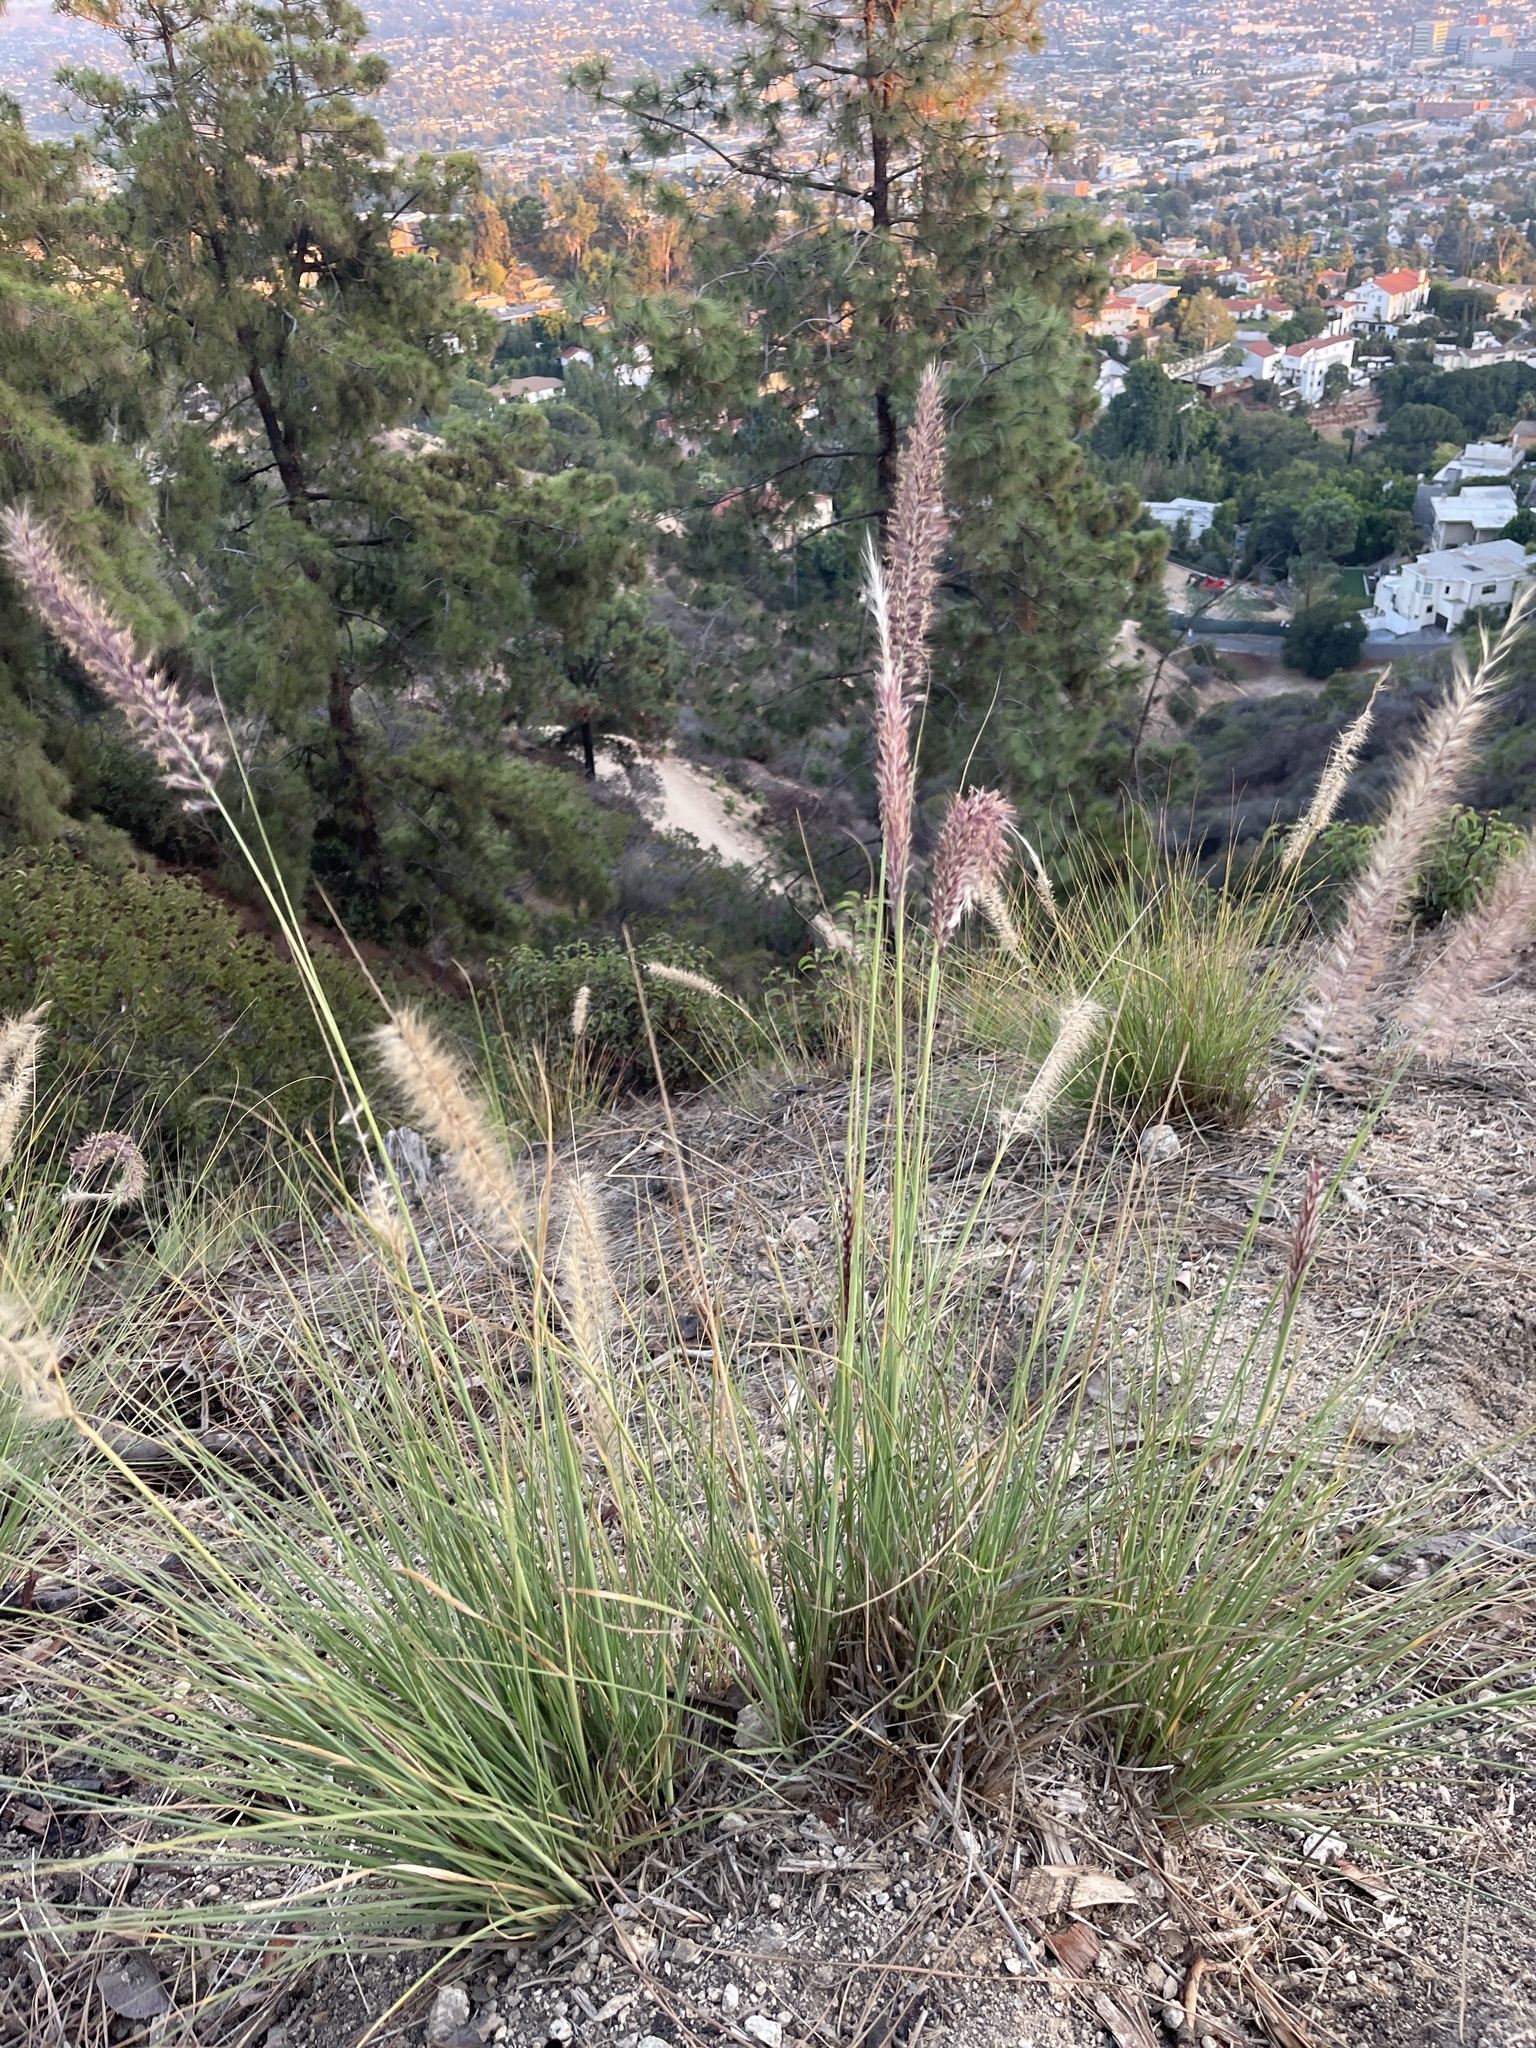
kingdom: Plantae
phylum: Tracheophyta
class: Liliopsida
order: Poales
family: Poaceae
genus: Cenchrus
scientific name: Cenchrus setaceus
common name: Crimson fountaingrass
